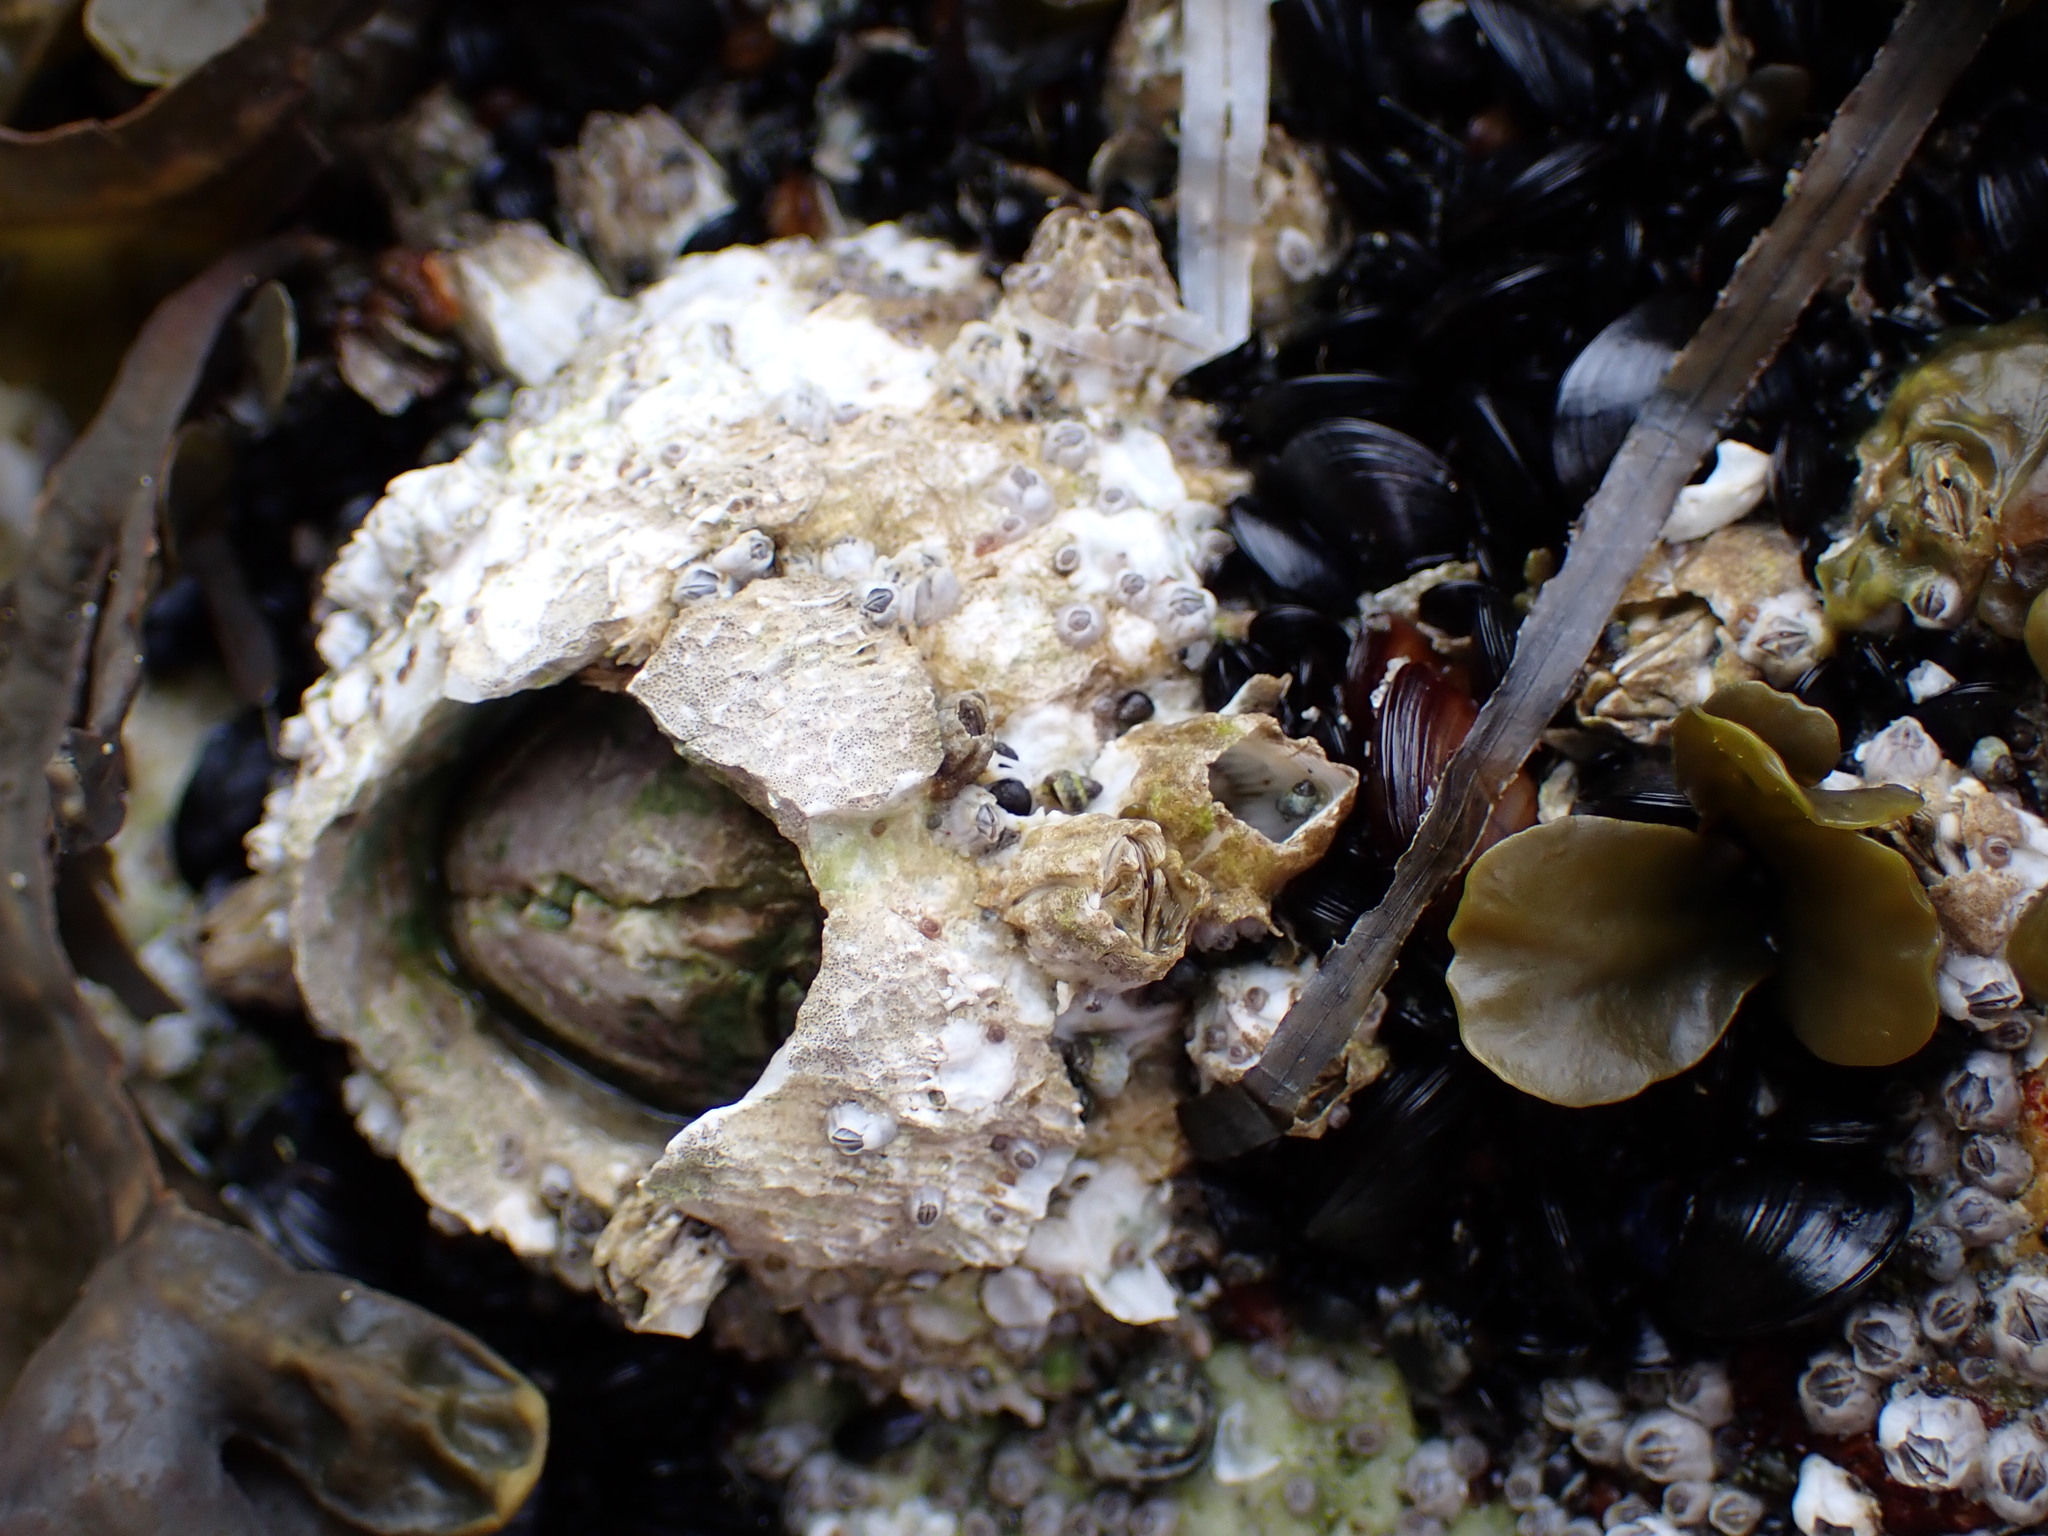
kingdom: Animalia
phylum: Arthropoda
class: Maxillopoda
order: Sessilia
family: Archaeobalanidae
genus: Semibalanus
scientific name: Semibalanus cariosus
